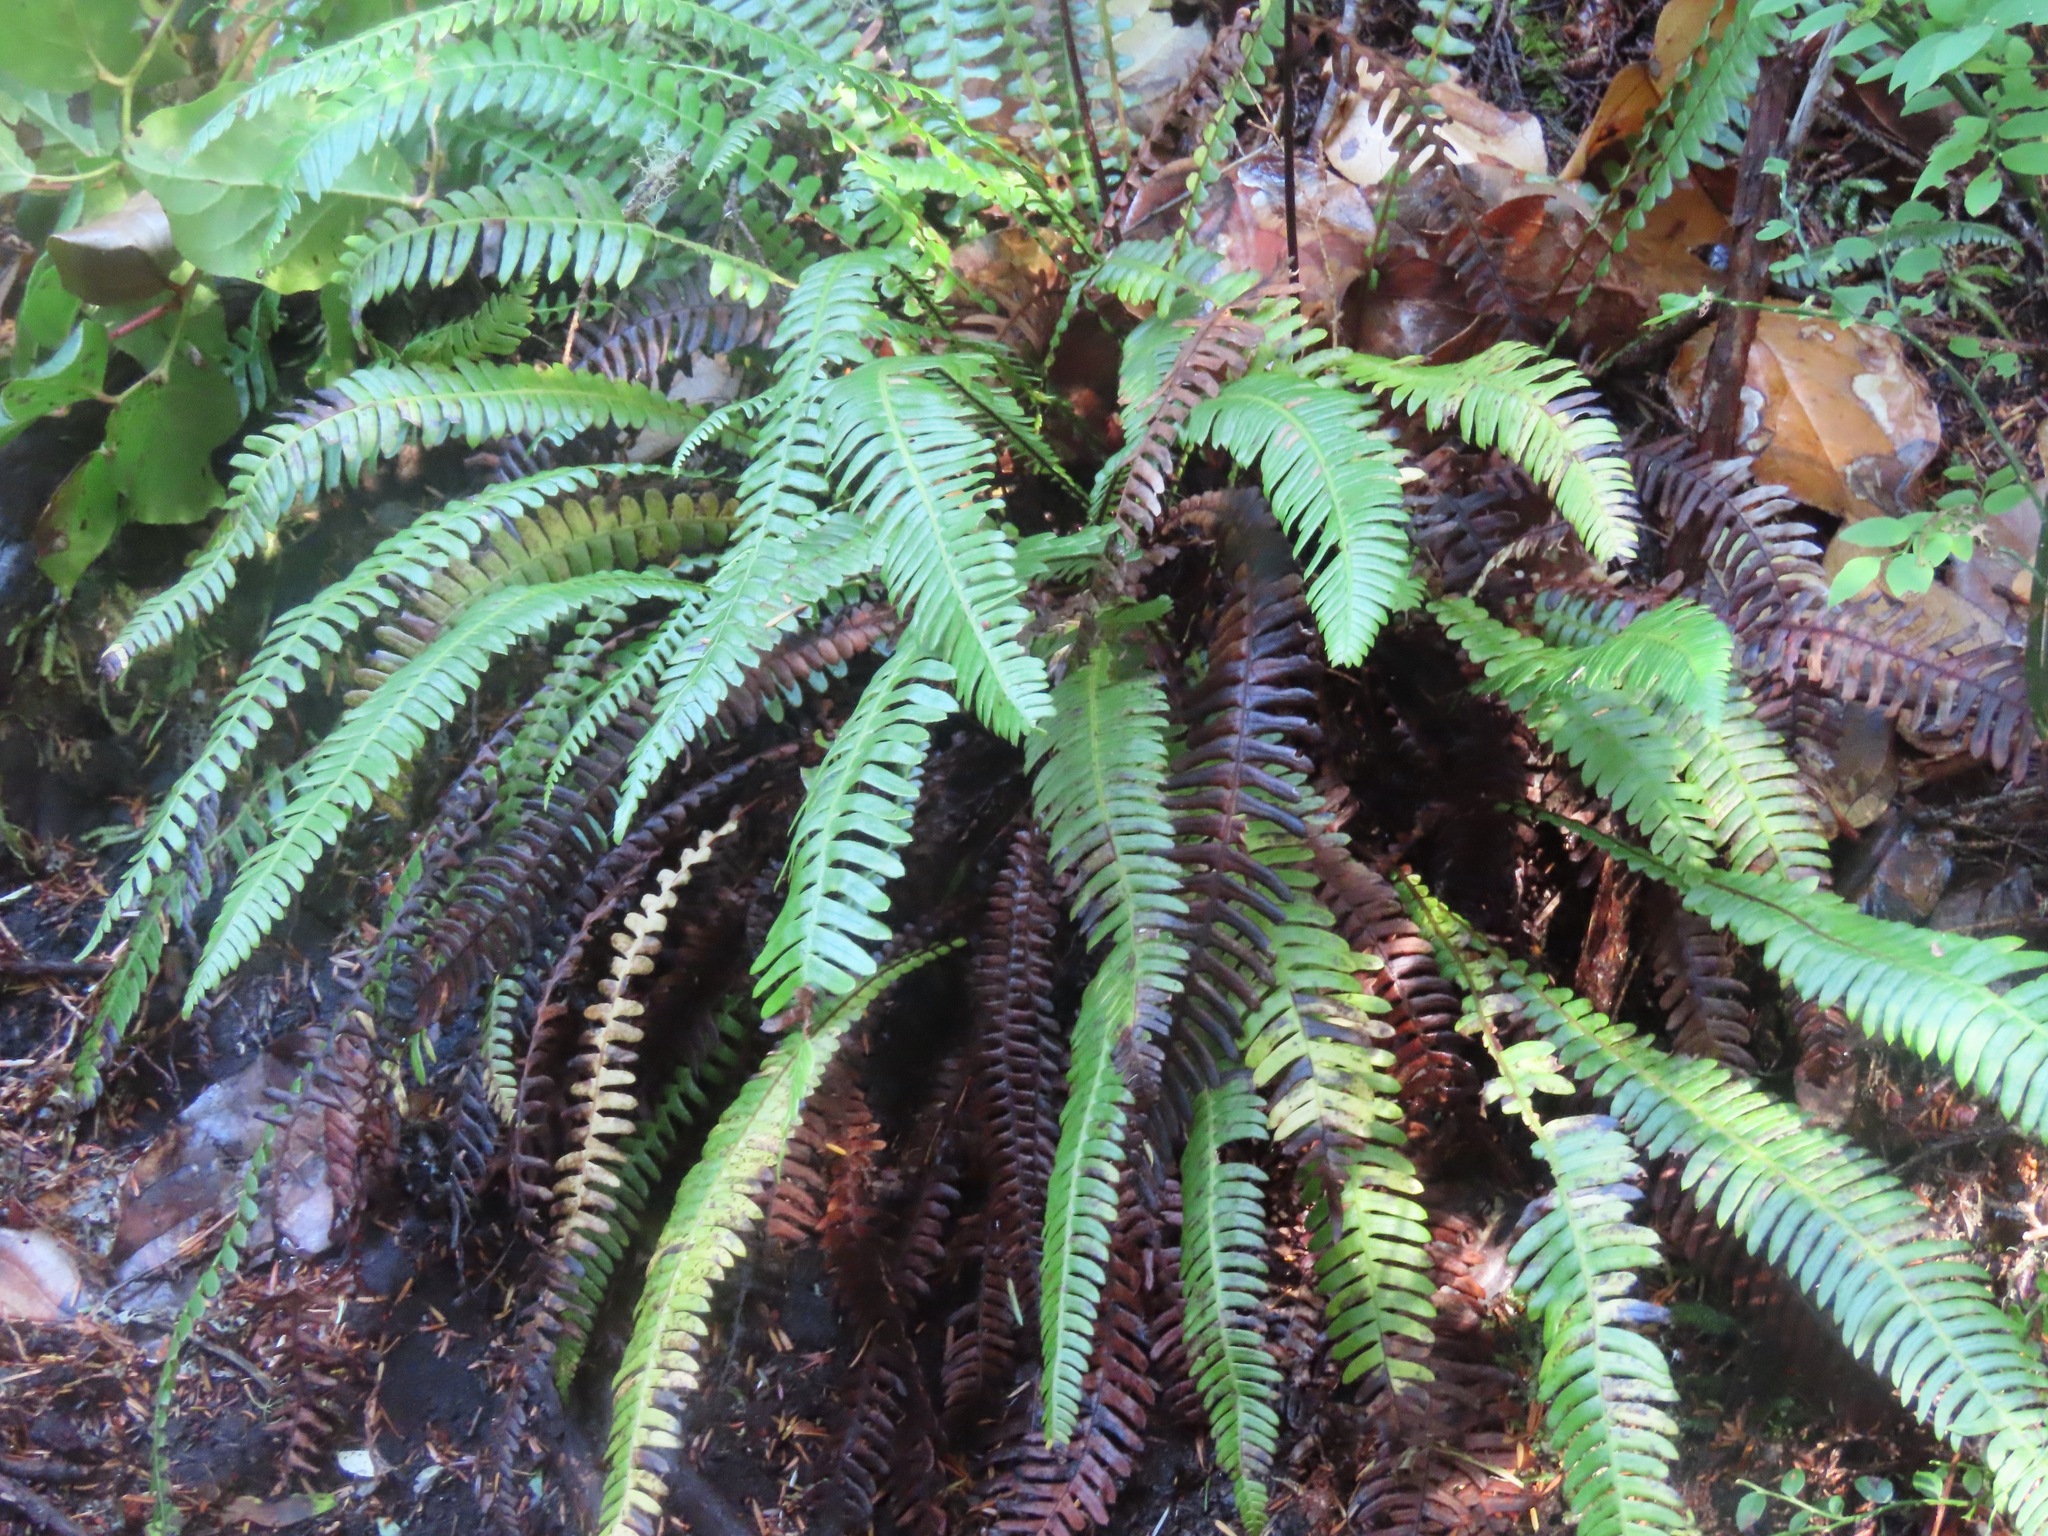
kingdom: Plantae
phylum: Tracheophyta
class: Polypodiopsida
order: Polypodiales
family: Blechnaceae
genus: Struthiopteris
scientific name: Struthiopteris spicant
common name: Deer fern
